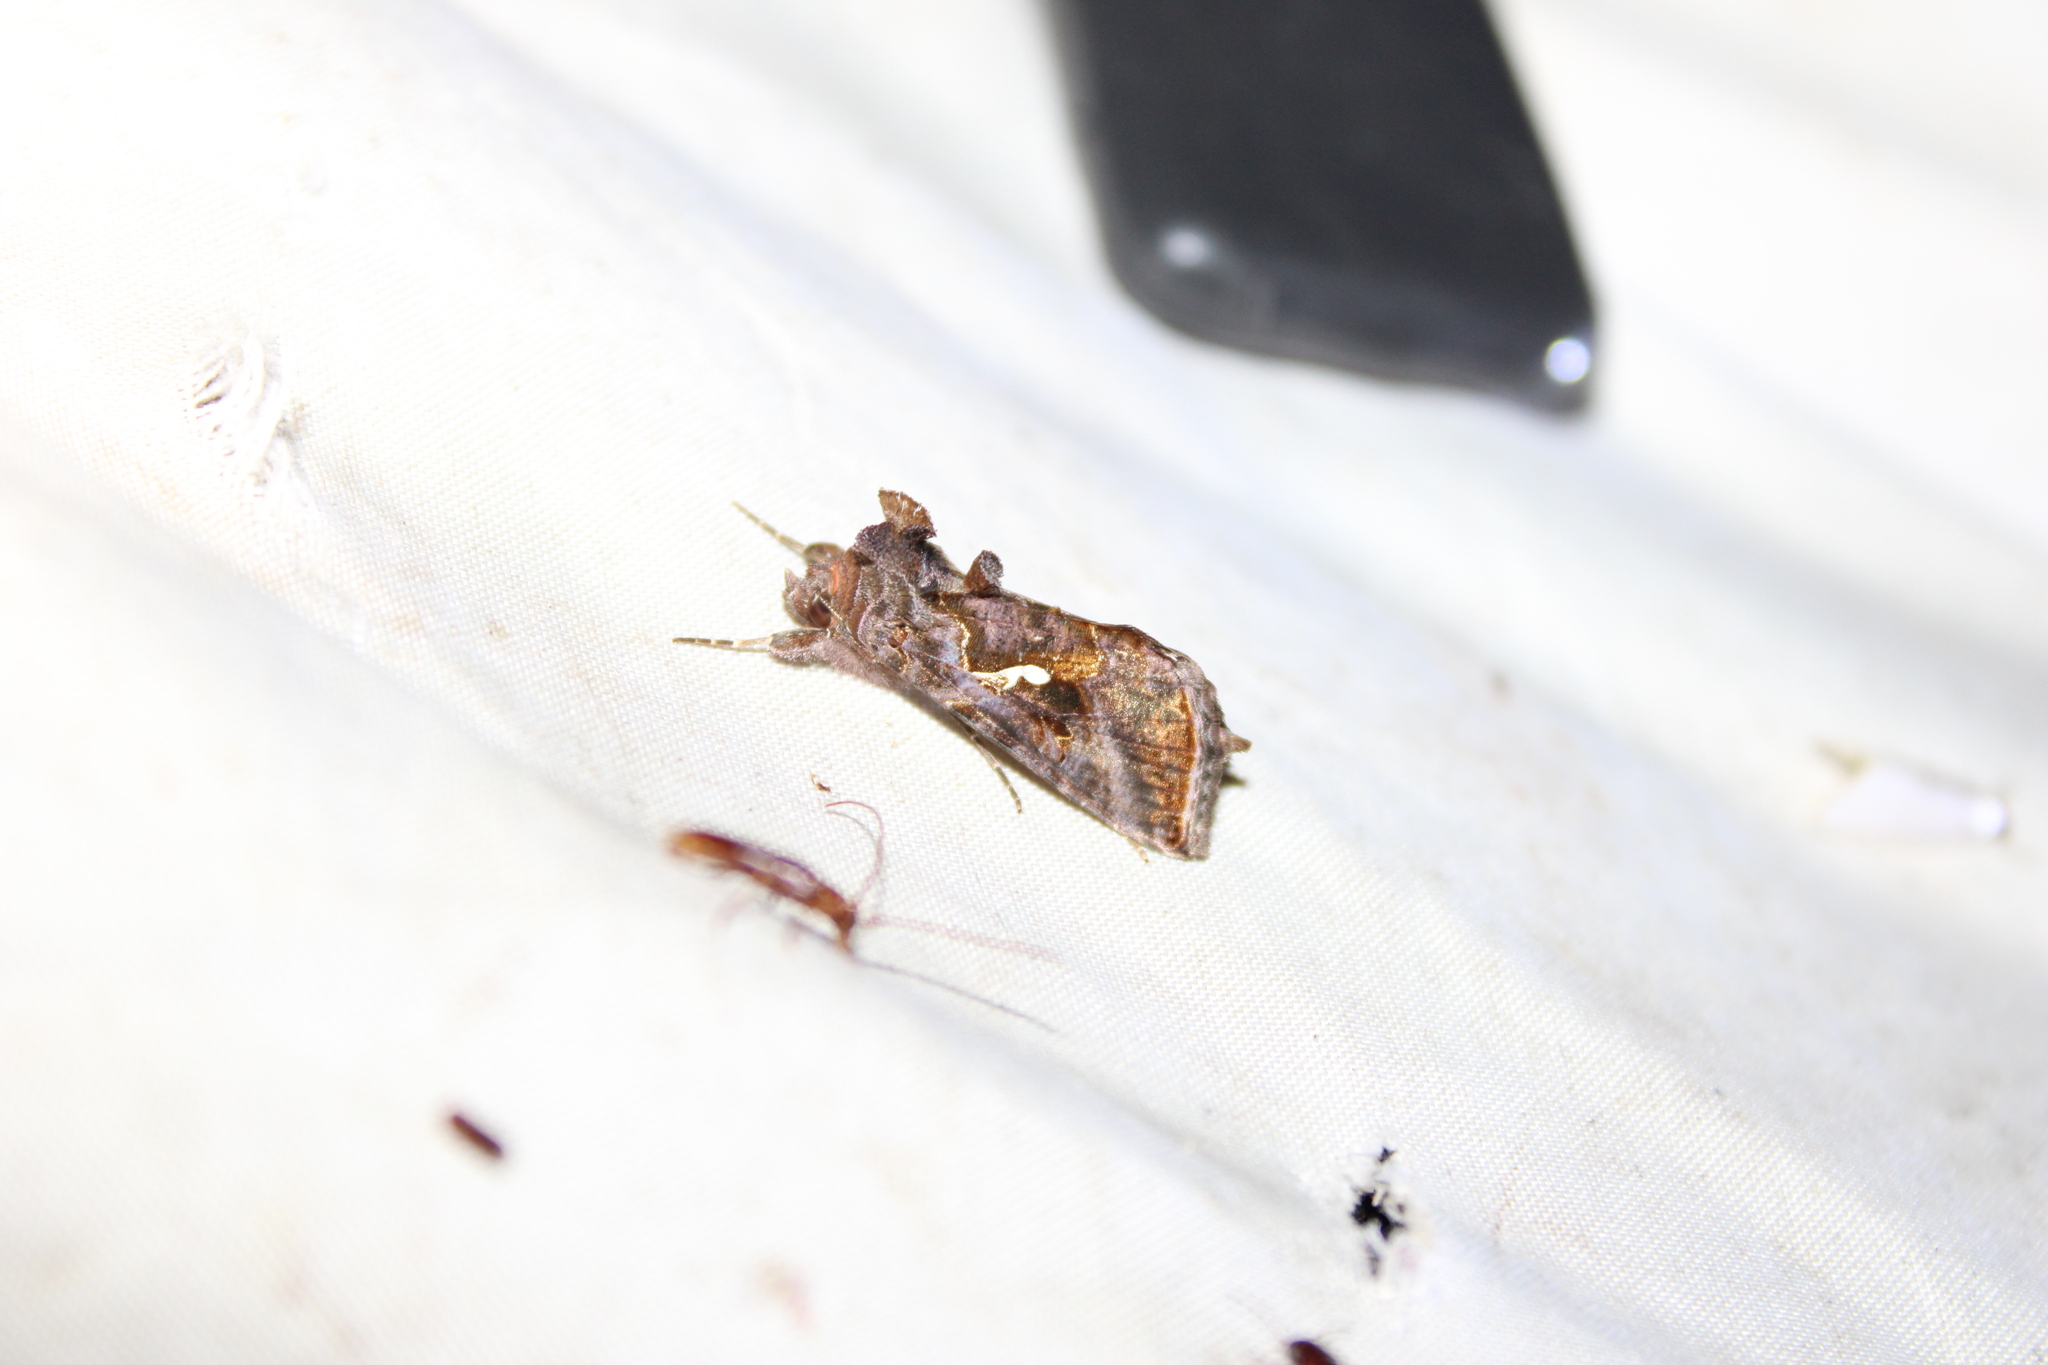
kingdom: Animalia
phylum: Arthropoda
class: Insecta
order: Lepidoptera
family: Noctuidae
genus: Autographa
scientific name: Autographa precationis
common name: Common looper moth
